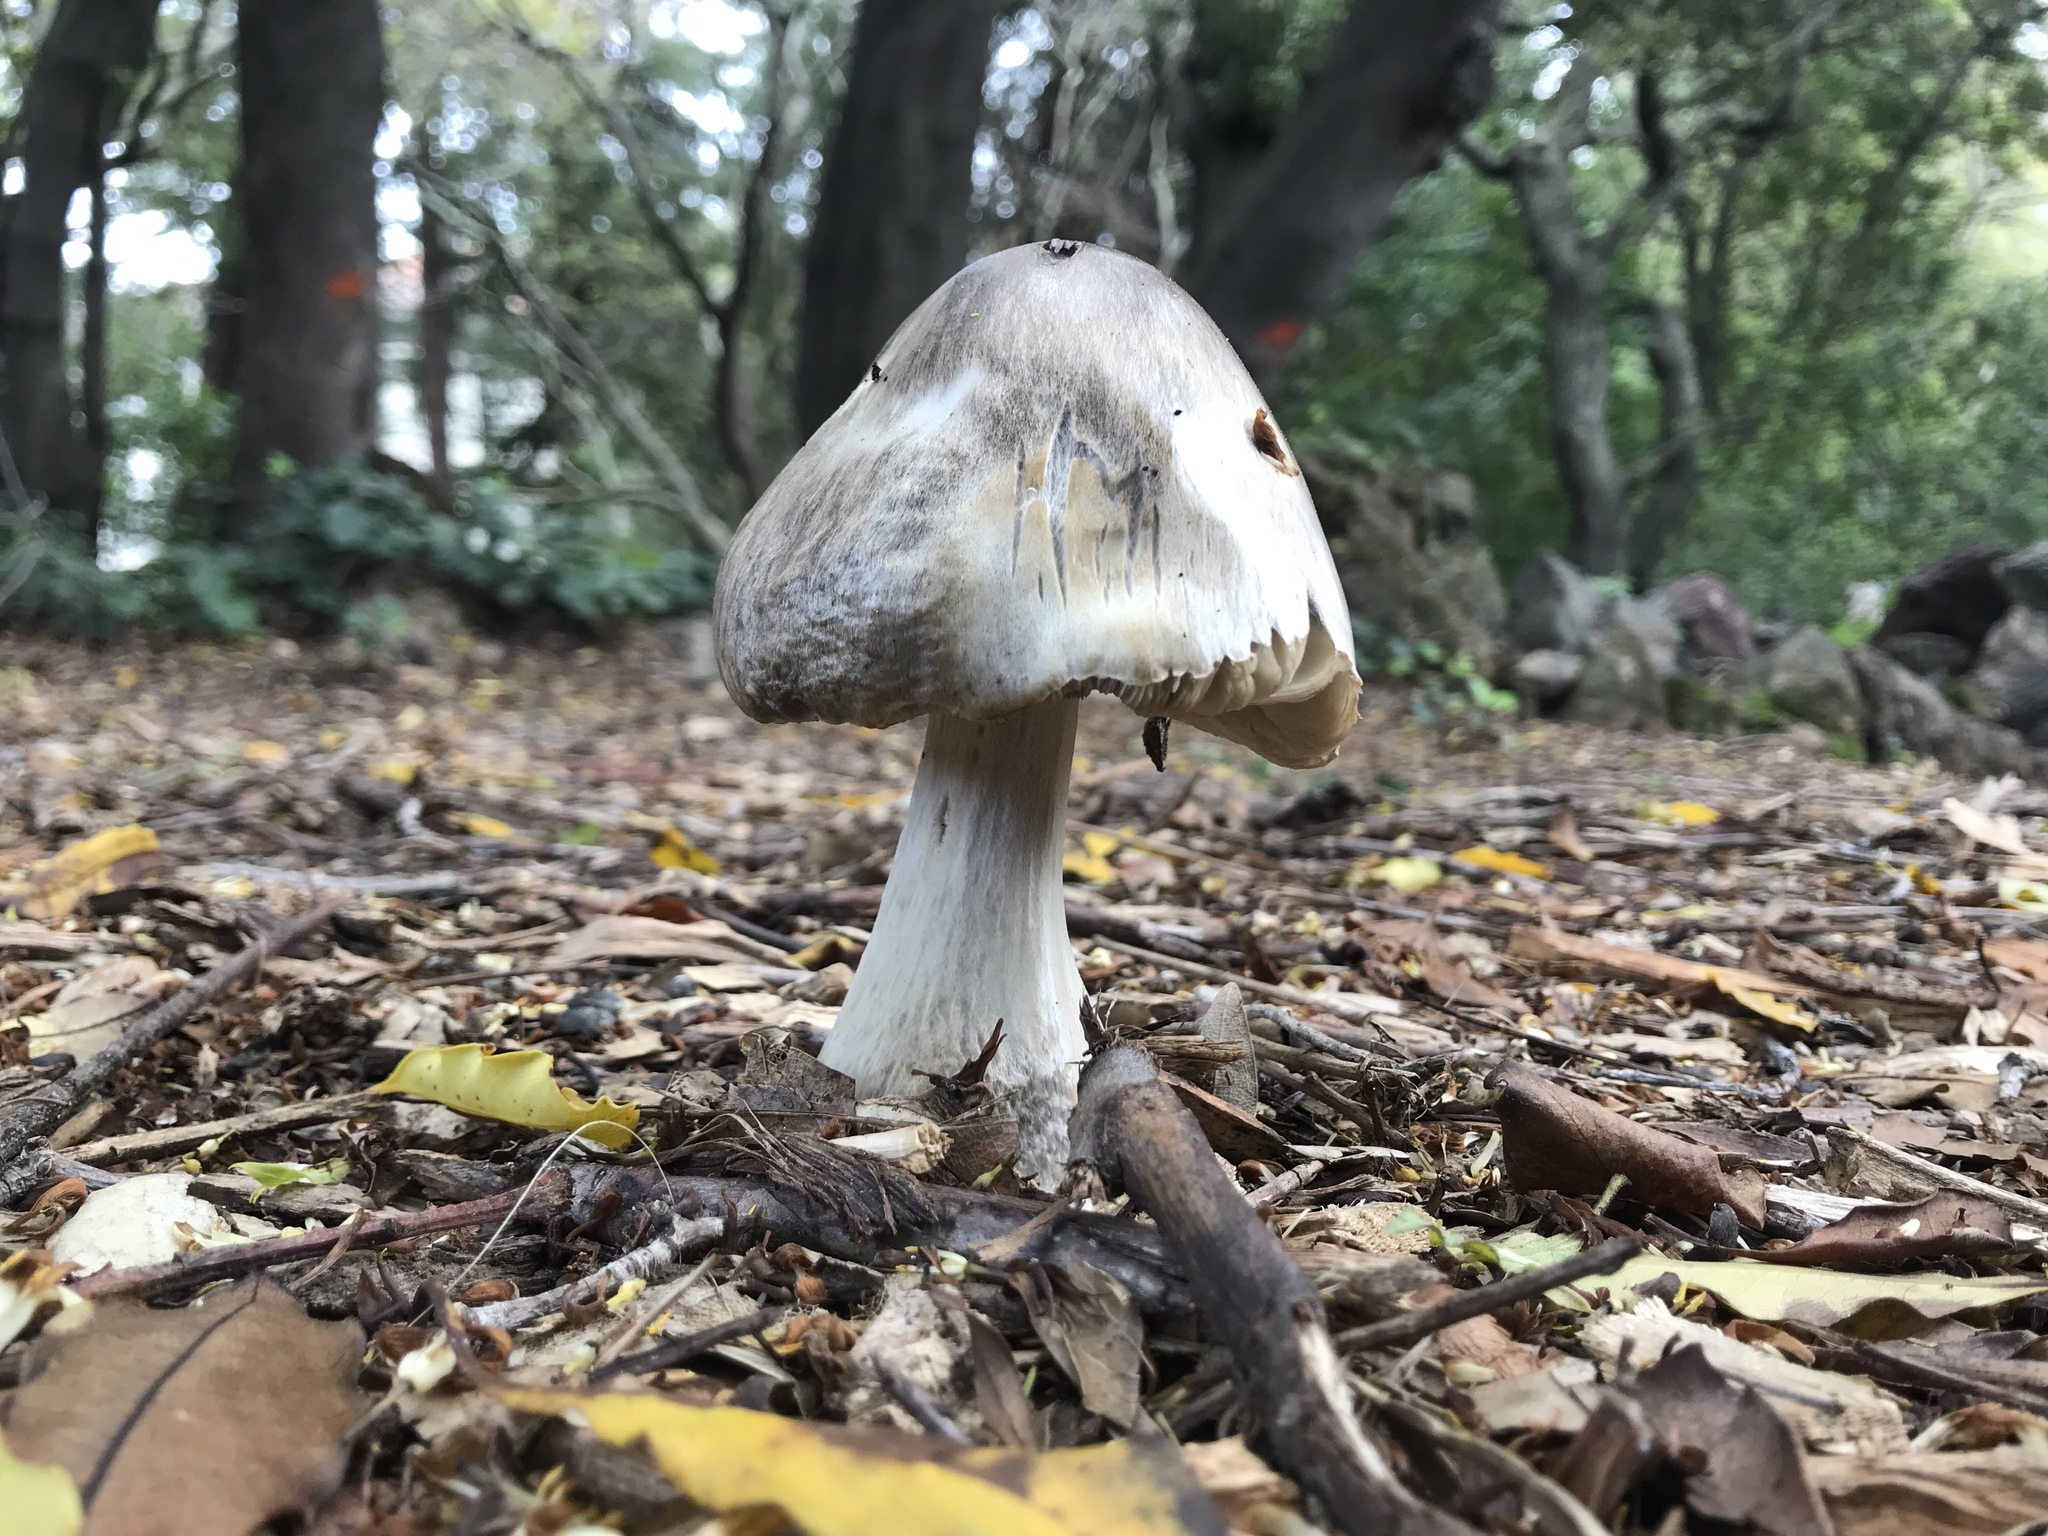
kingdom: Fungi
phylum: Basidiomycota
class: Agaricomycetes
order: Agaricales
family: Pluteaceae
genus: Volvopluteus
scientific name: Volvopluteus gloiocephalus
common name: Stubble rosegill
